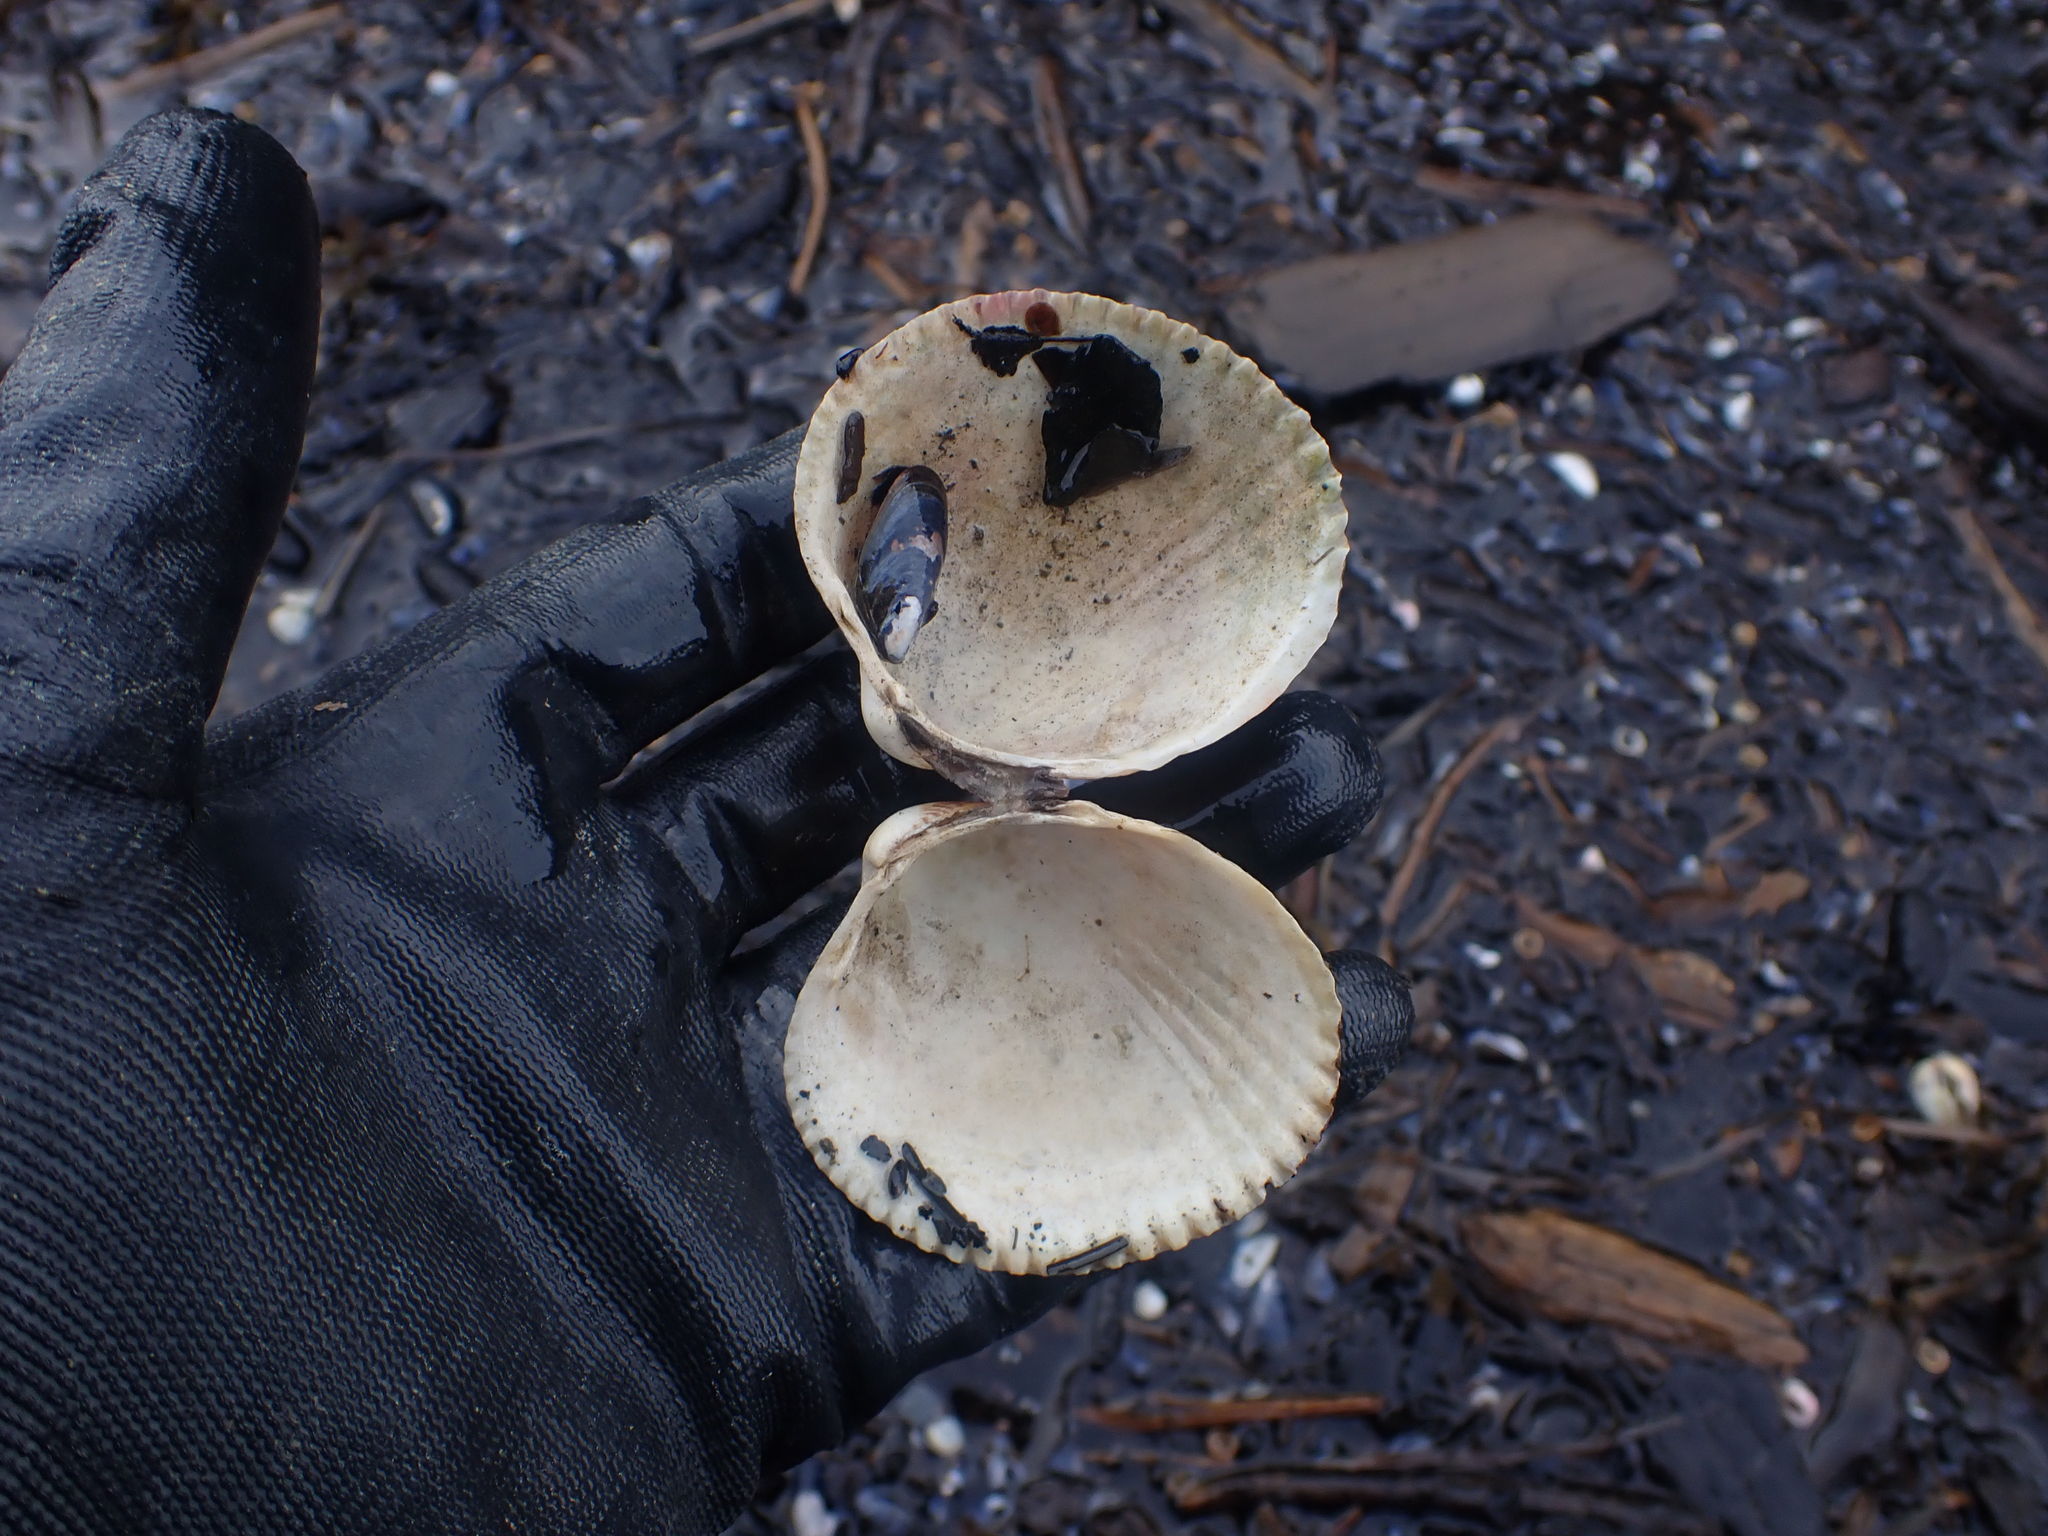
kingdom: Animalia
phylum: Mollusca
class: Bivalvia
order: Cardiida
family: Cardiidae
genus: Clinocardium
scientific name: Clinocardium nuttallii
